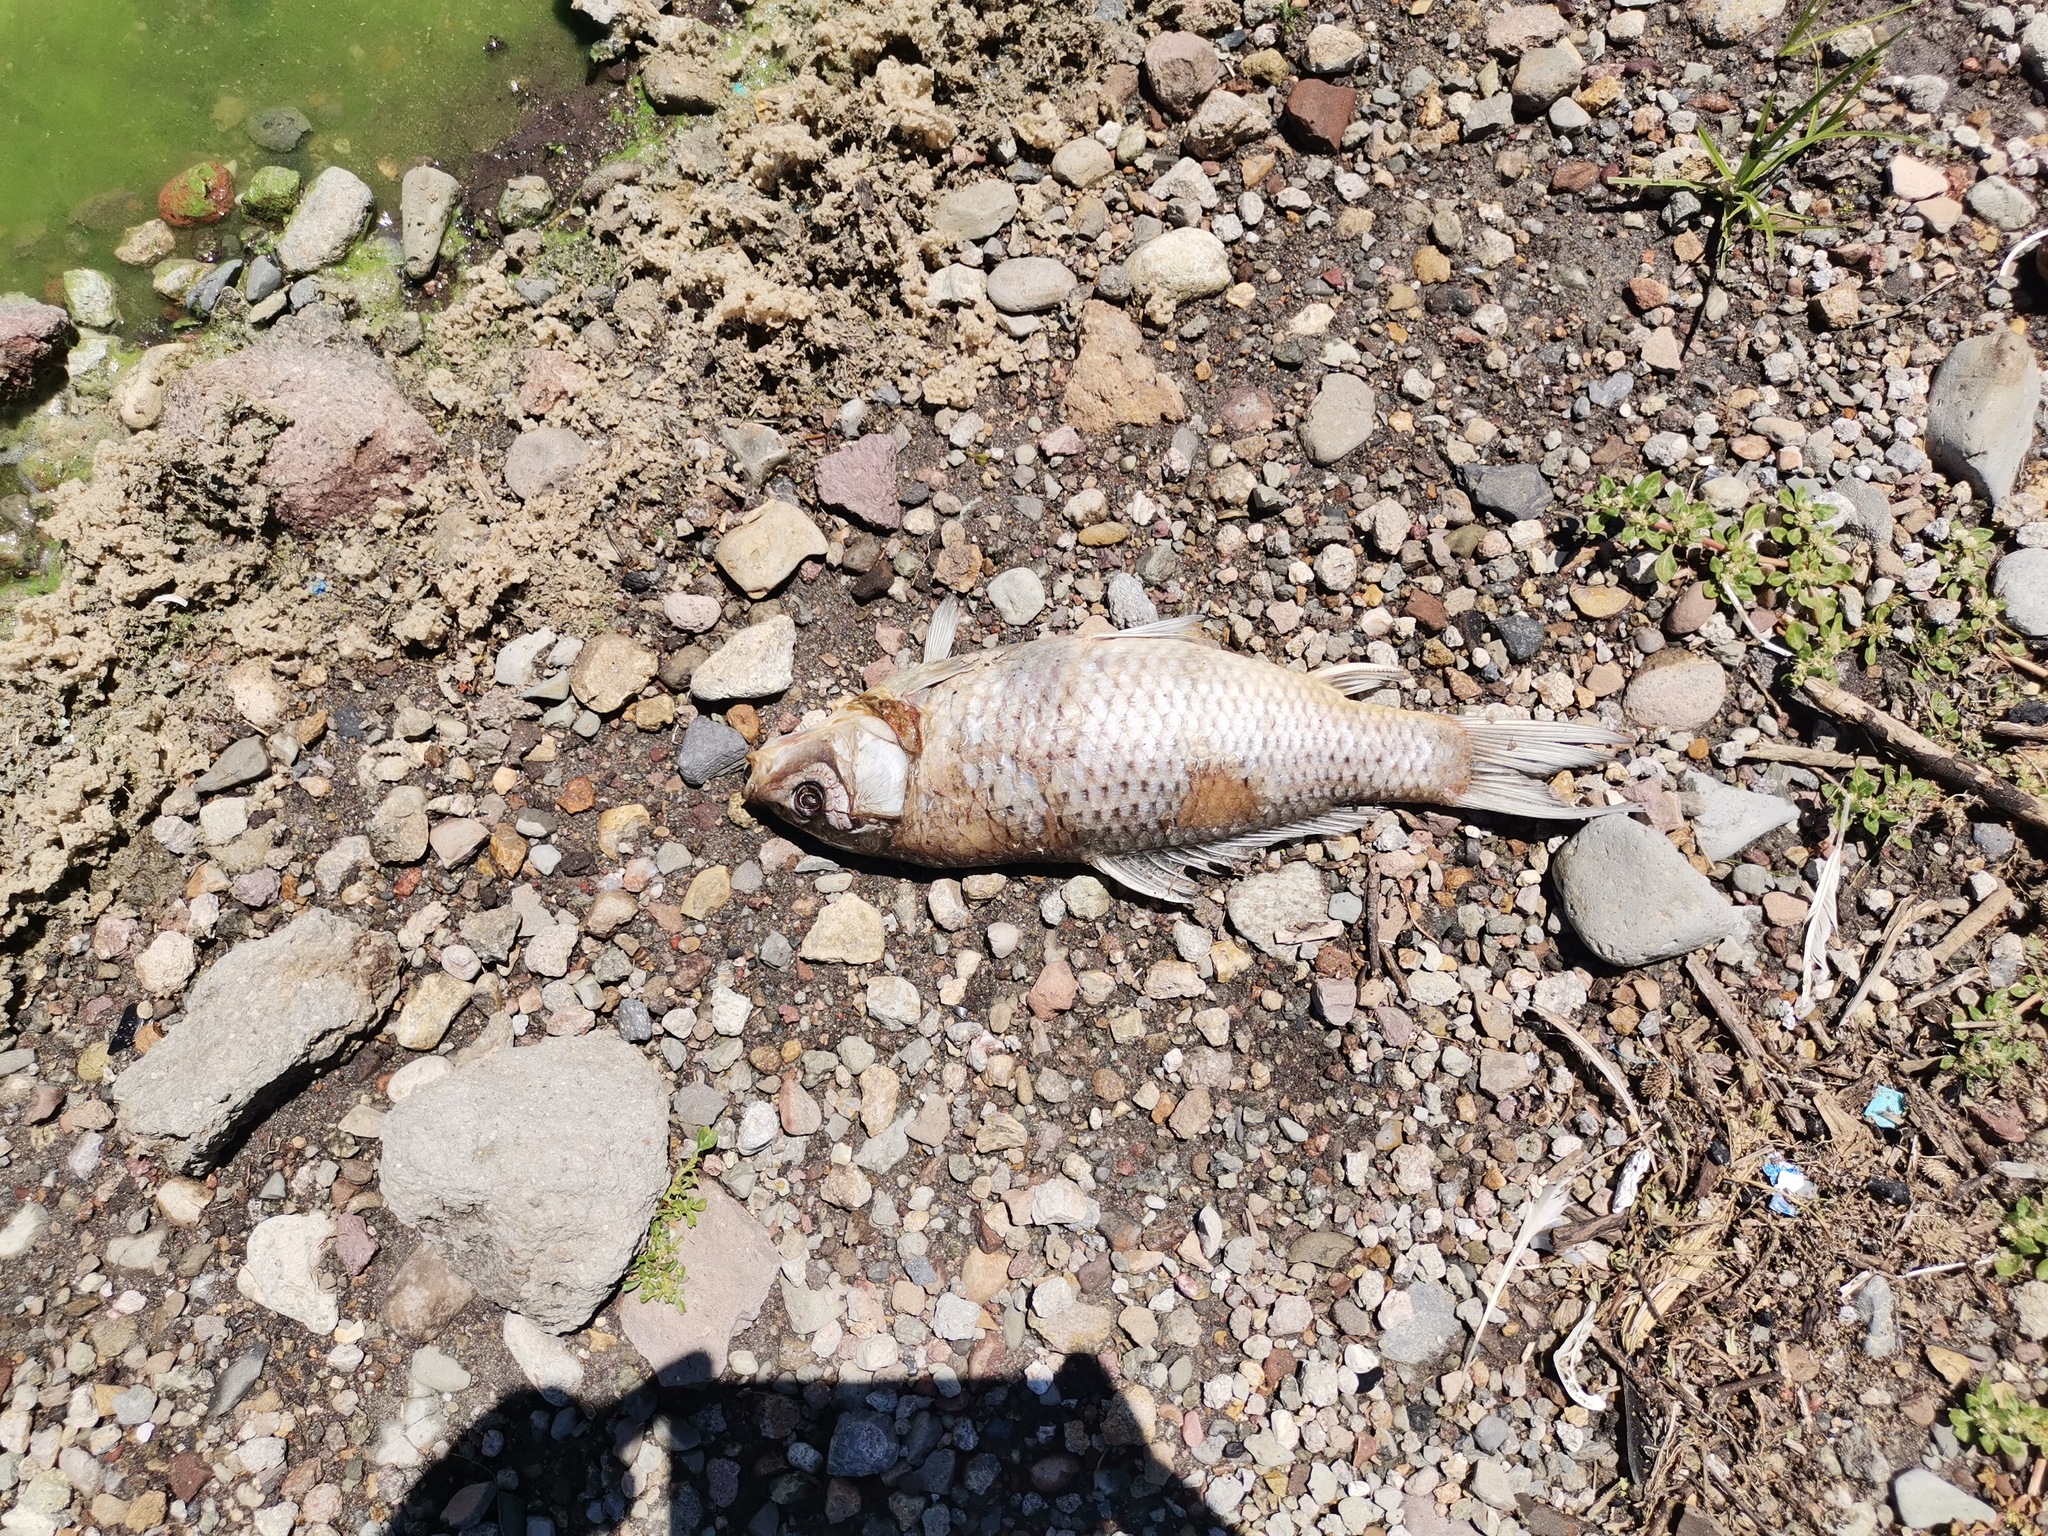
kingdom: Animalia
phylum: Chordata
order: Cypriniformes
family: Cyprinidae
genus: Cyprinus
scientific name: Cyprinus carpio
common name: Common carp
